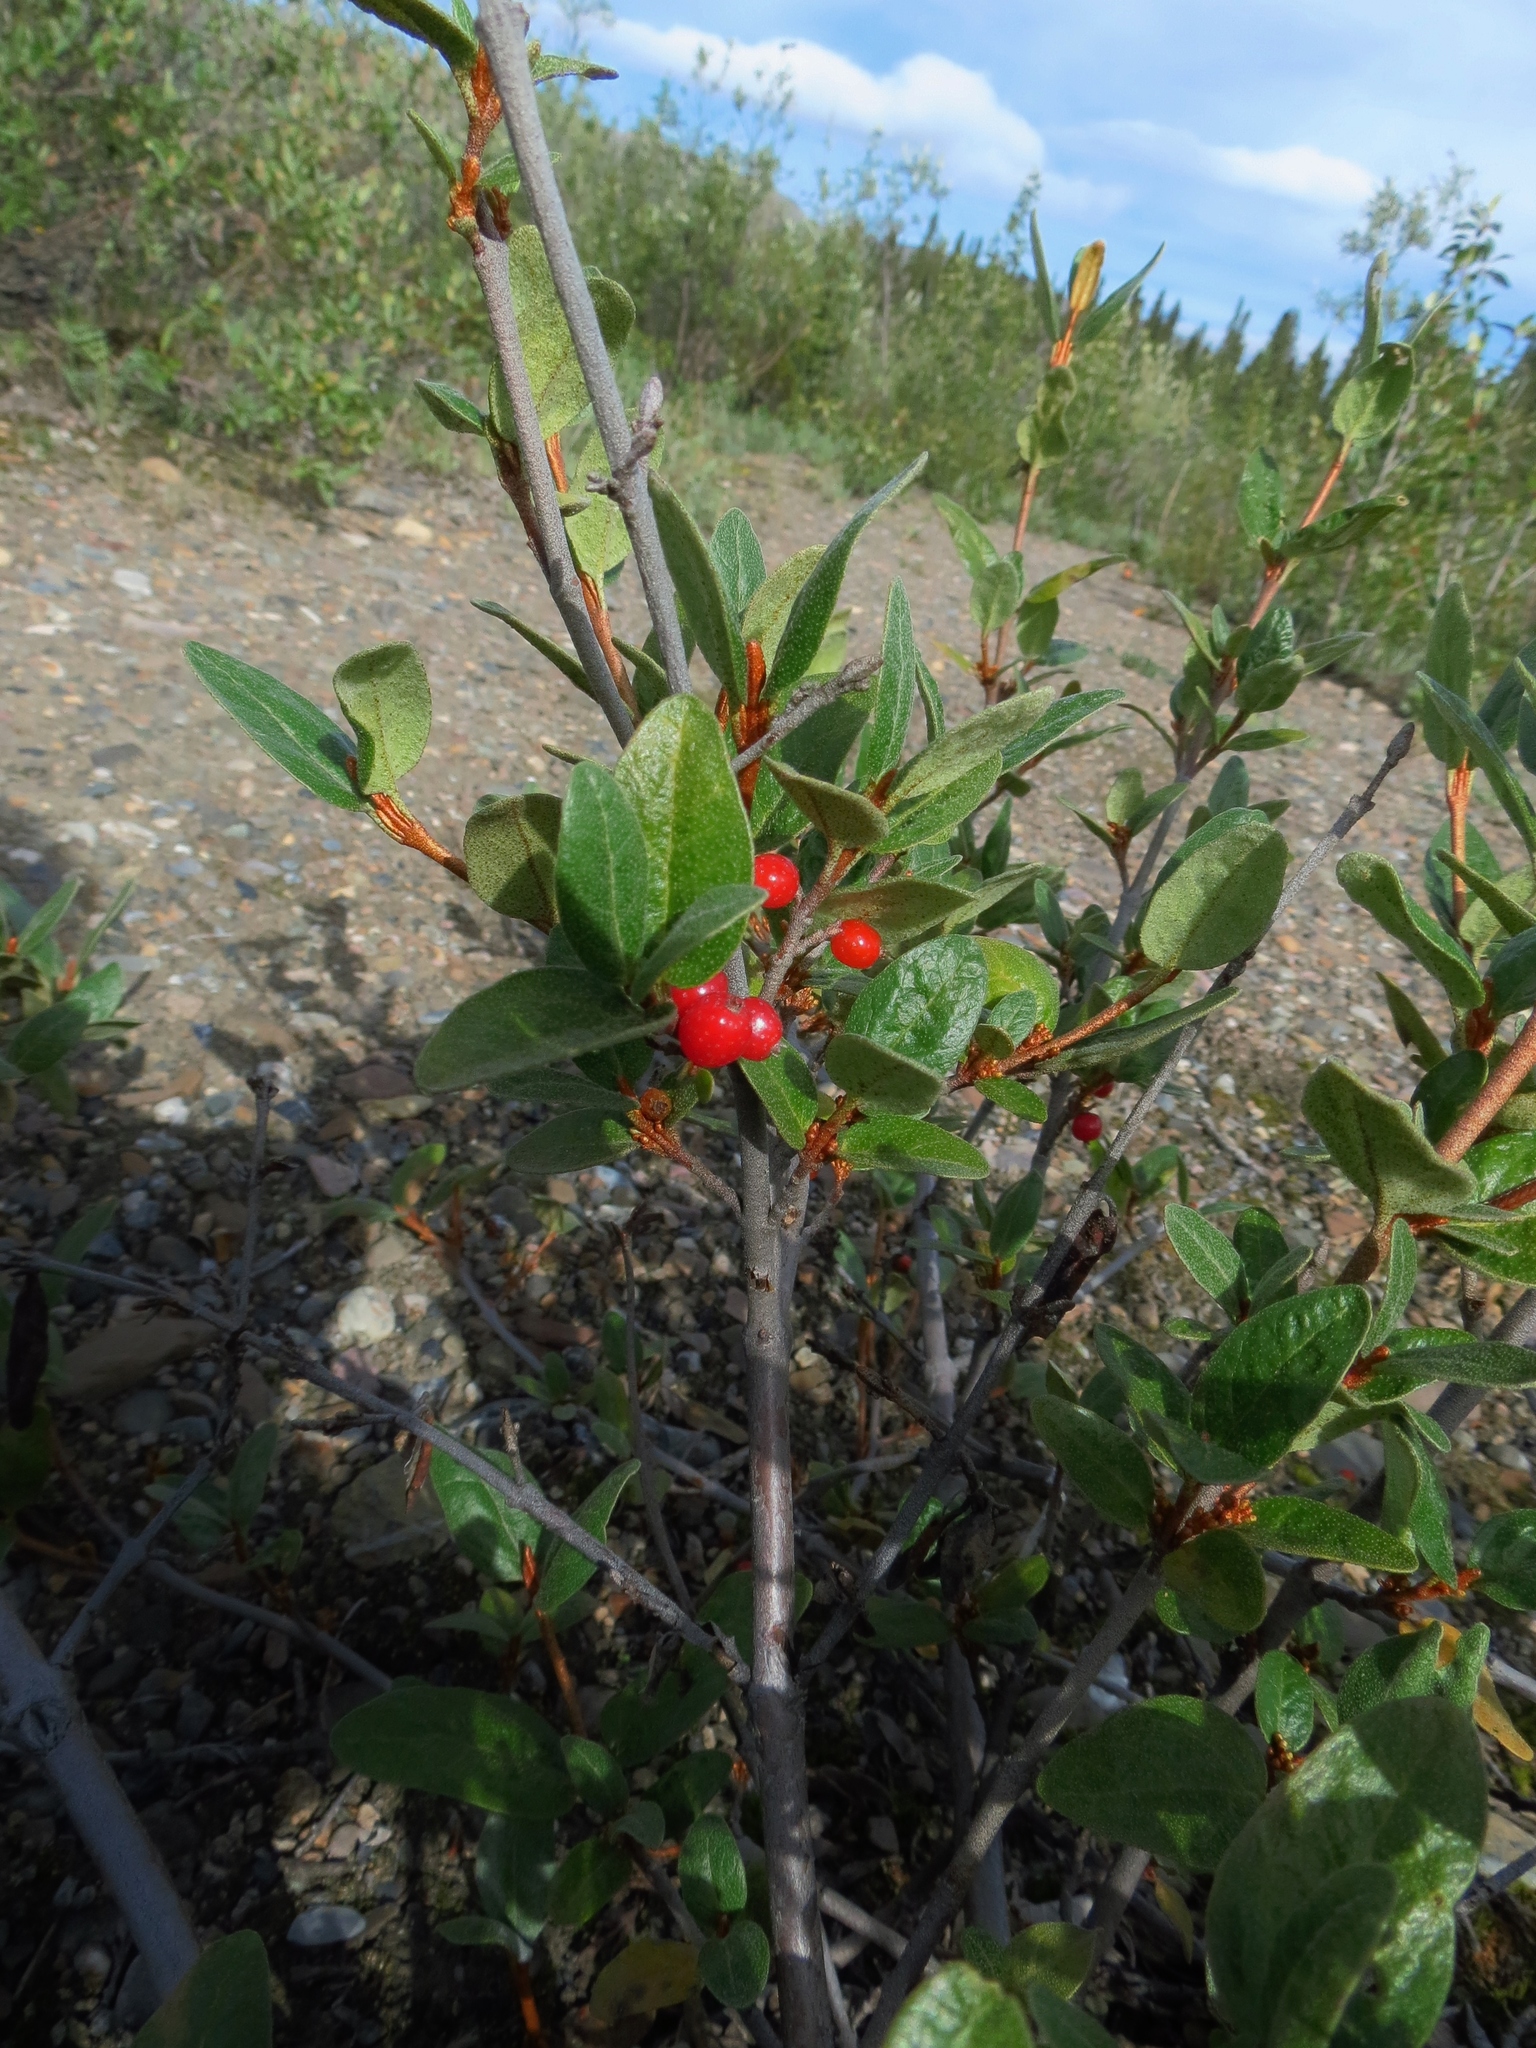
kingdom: Plantae
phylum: Tracheophyta
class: Magnoliopsida
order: Rosales
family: Elaeagnaceae
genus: Shepherdia
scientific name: Shepherdia canadensis
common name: Soapberry
